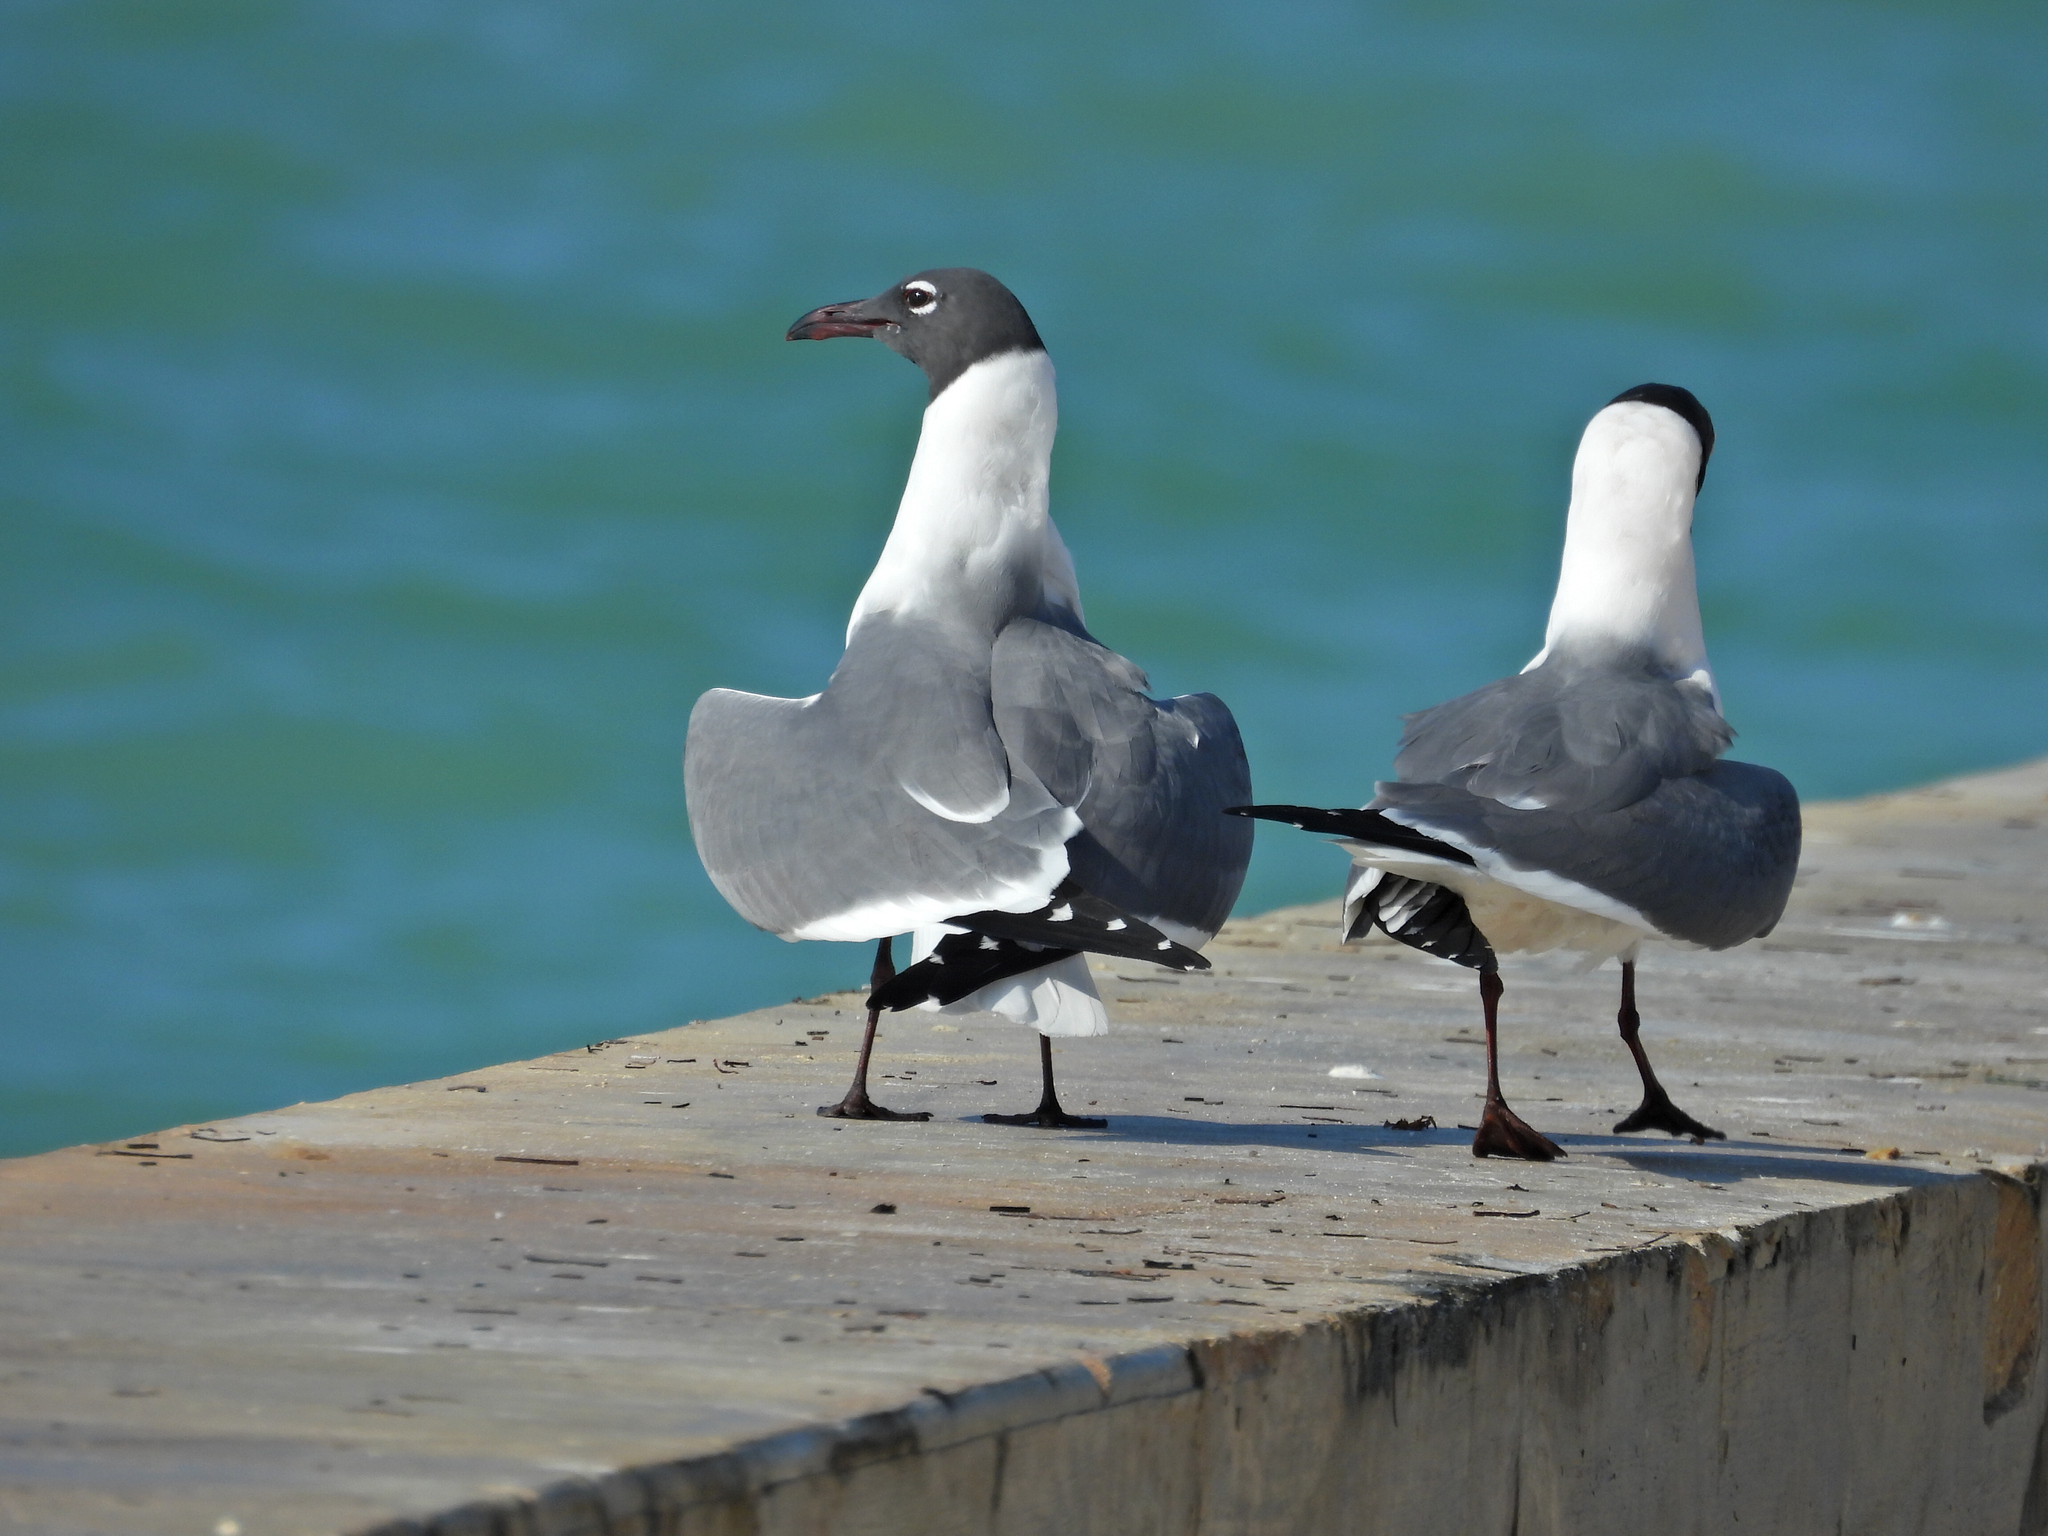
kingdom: Animalia
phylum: Chordata
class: Aves
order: Charadriiformes
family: Laridae
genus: Leucophaeus
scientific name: Leucophaeus atricilla
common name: Laughing gull
